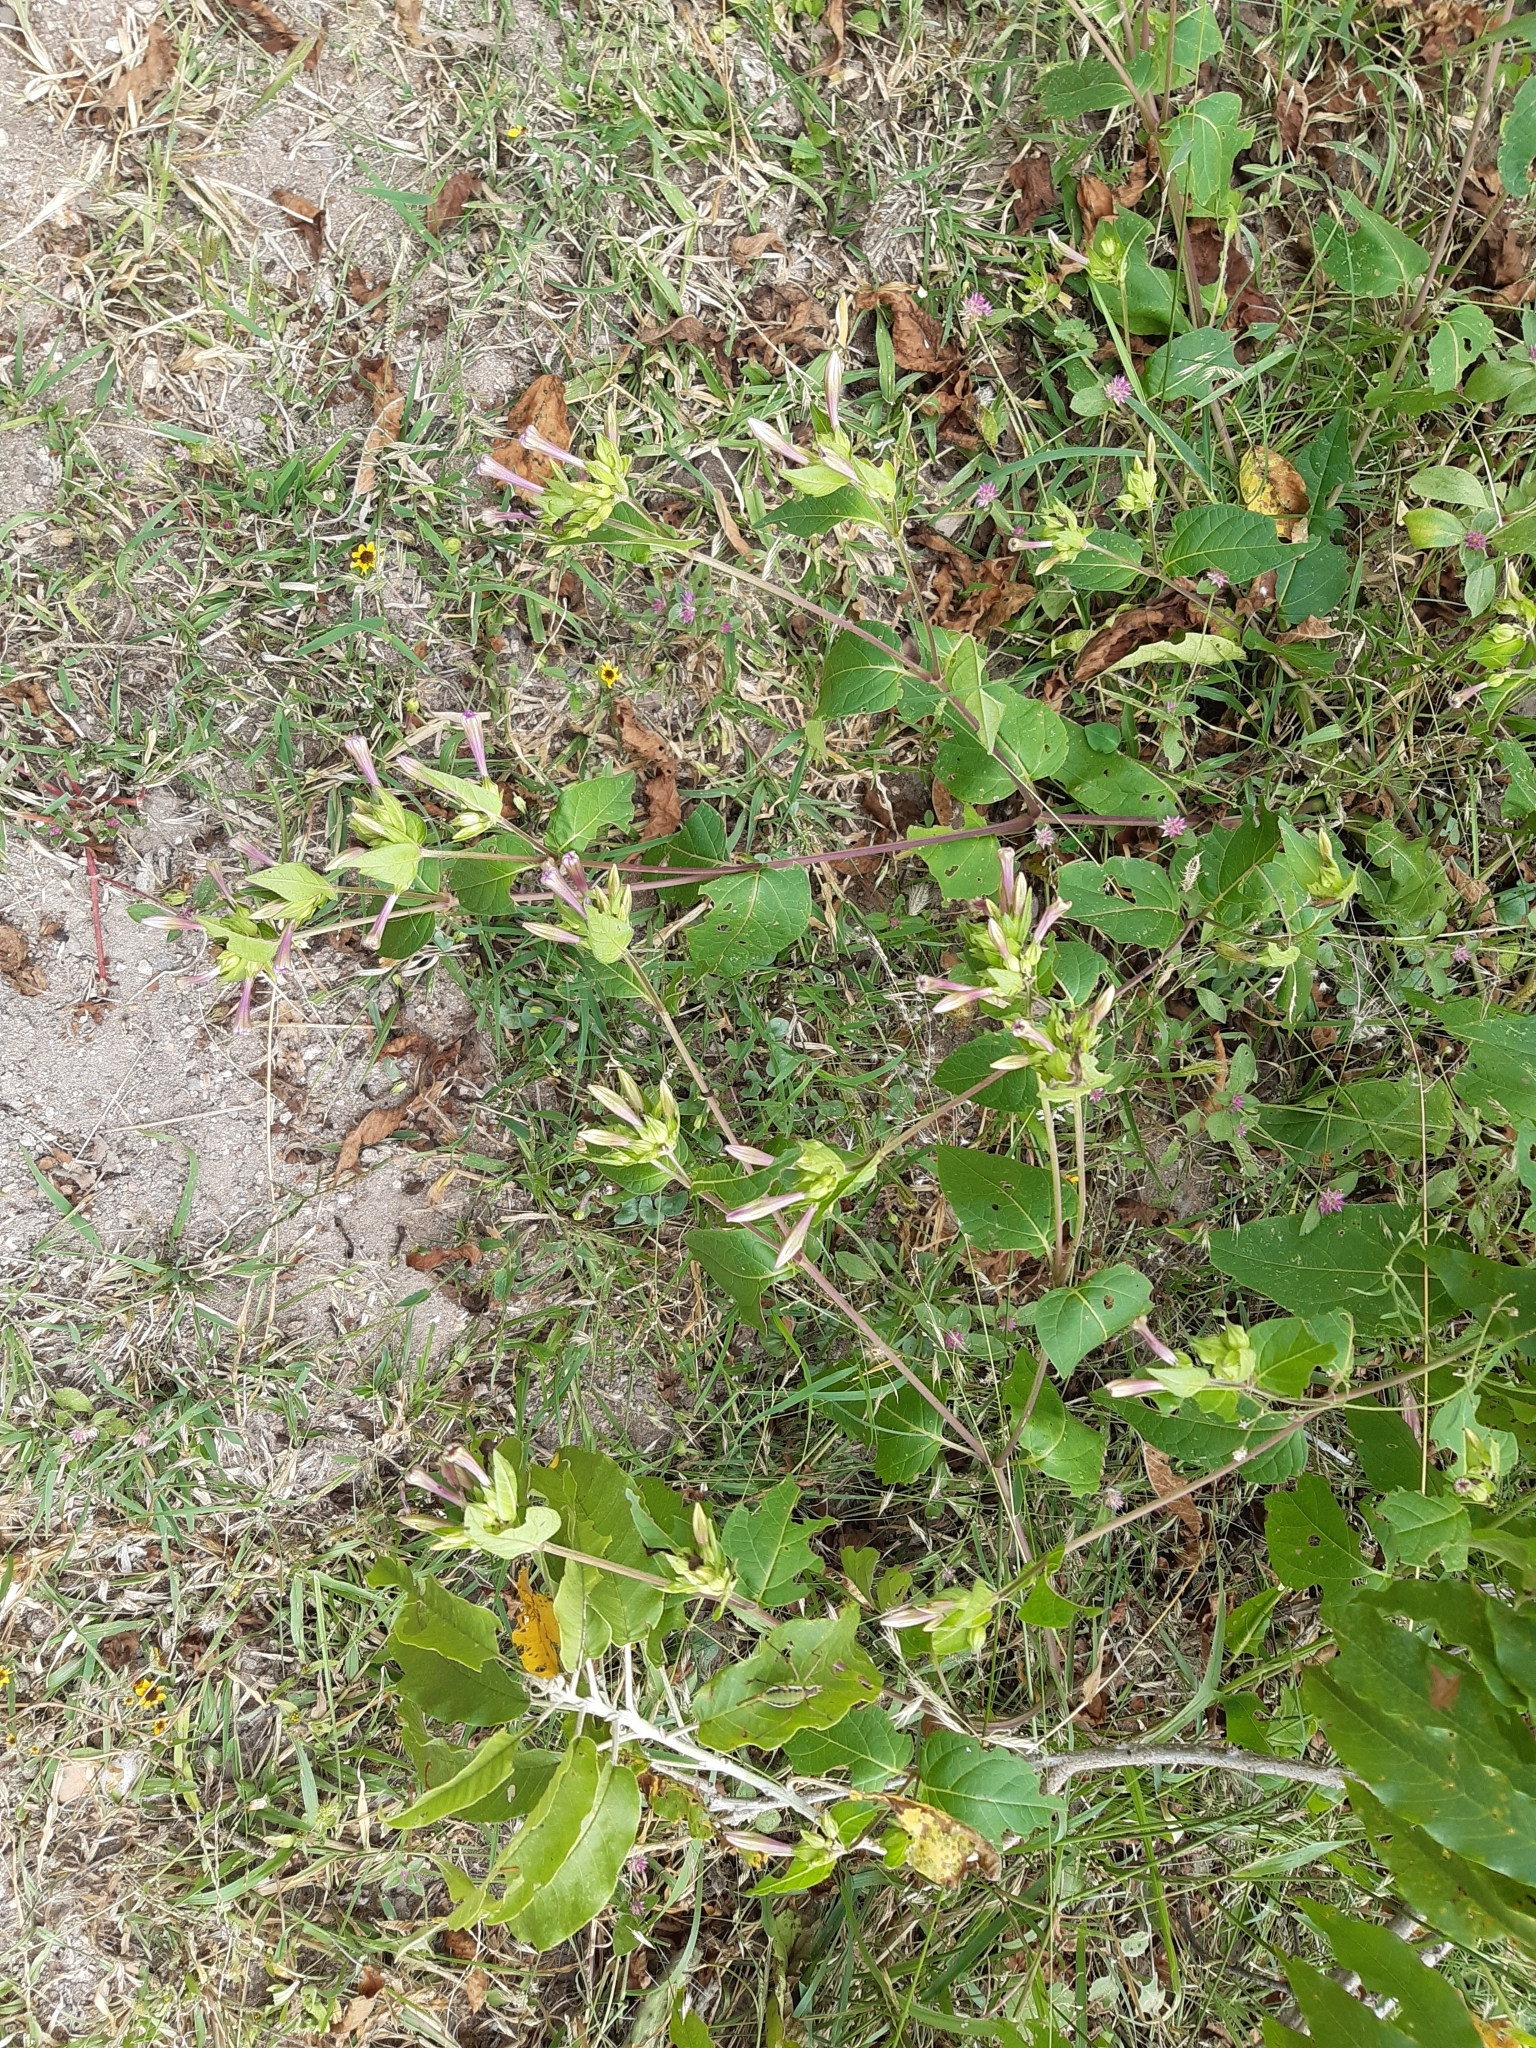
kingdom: Plantae
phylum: Tracheophyta
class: Magnoliopsida
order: Caryophyllales
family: Nyctaginaceae
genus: Mirabilis
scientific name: Mirabilis jalapa
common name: Marvel-of-peru
